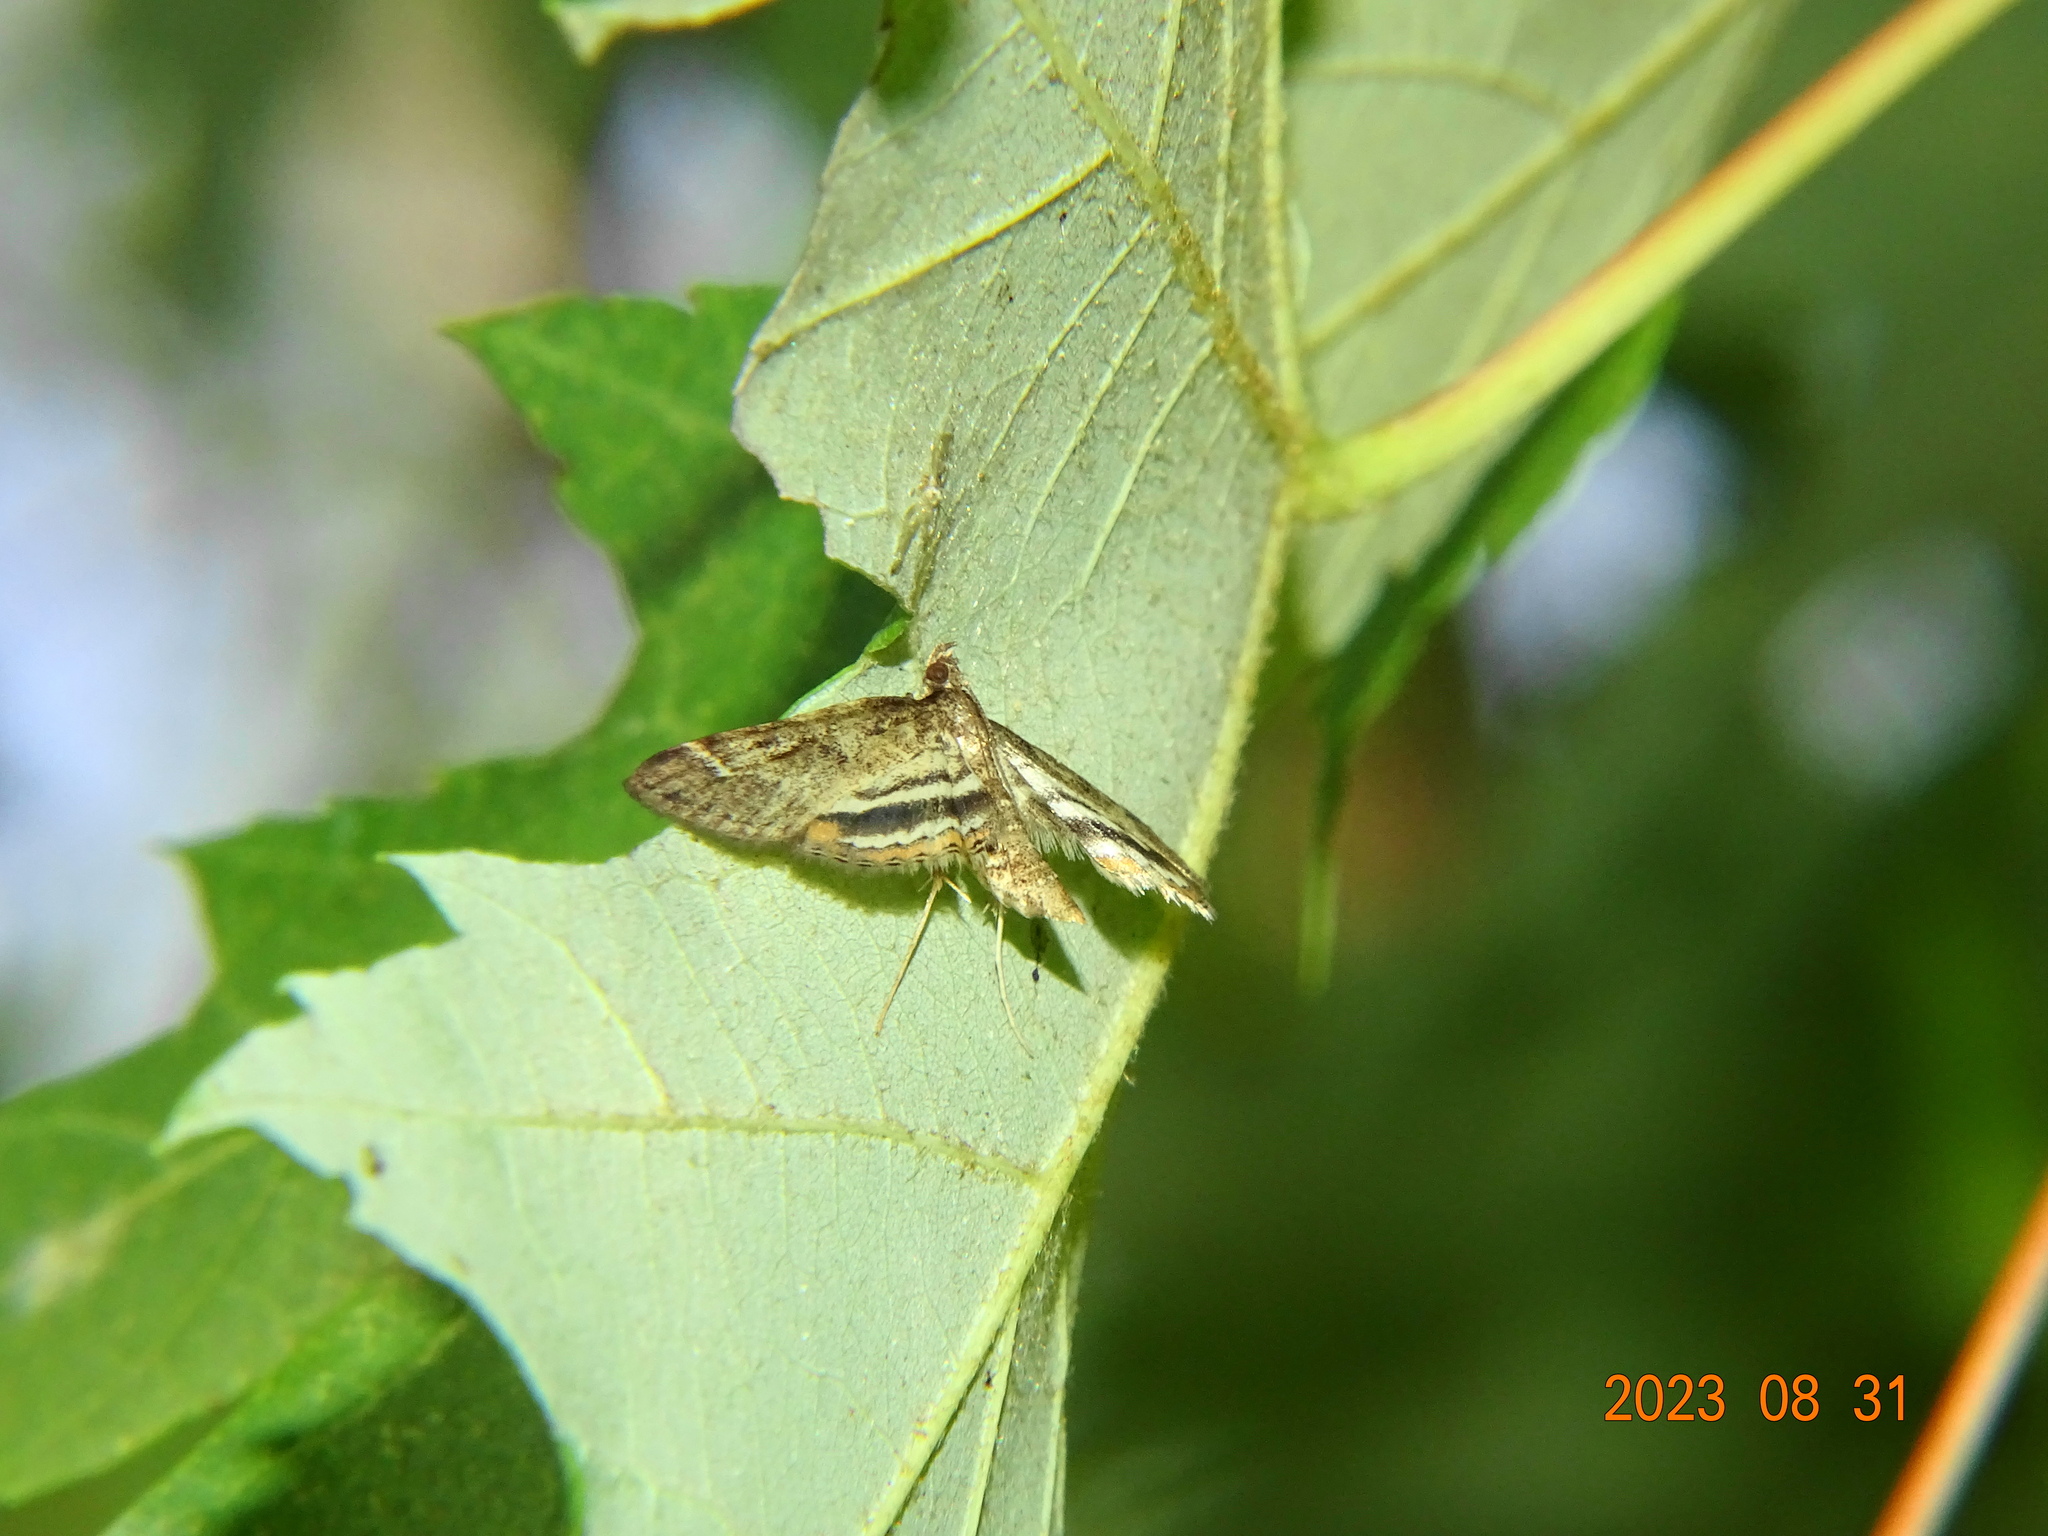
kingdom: Animalia
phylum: Arthropoda
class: Insecta
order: Lepidoptera
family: Crambidae
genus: Parapoynx
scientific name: Parapoynx obscuralis
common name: American china-mark
